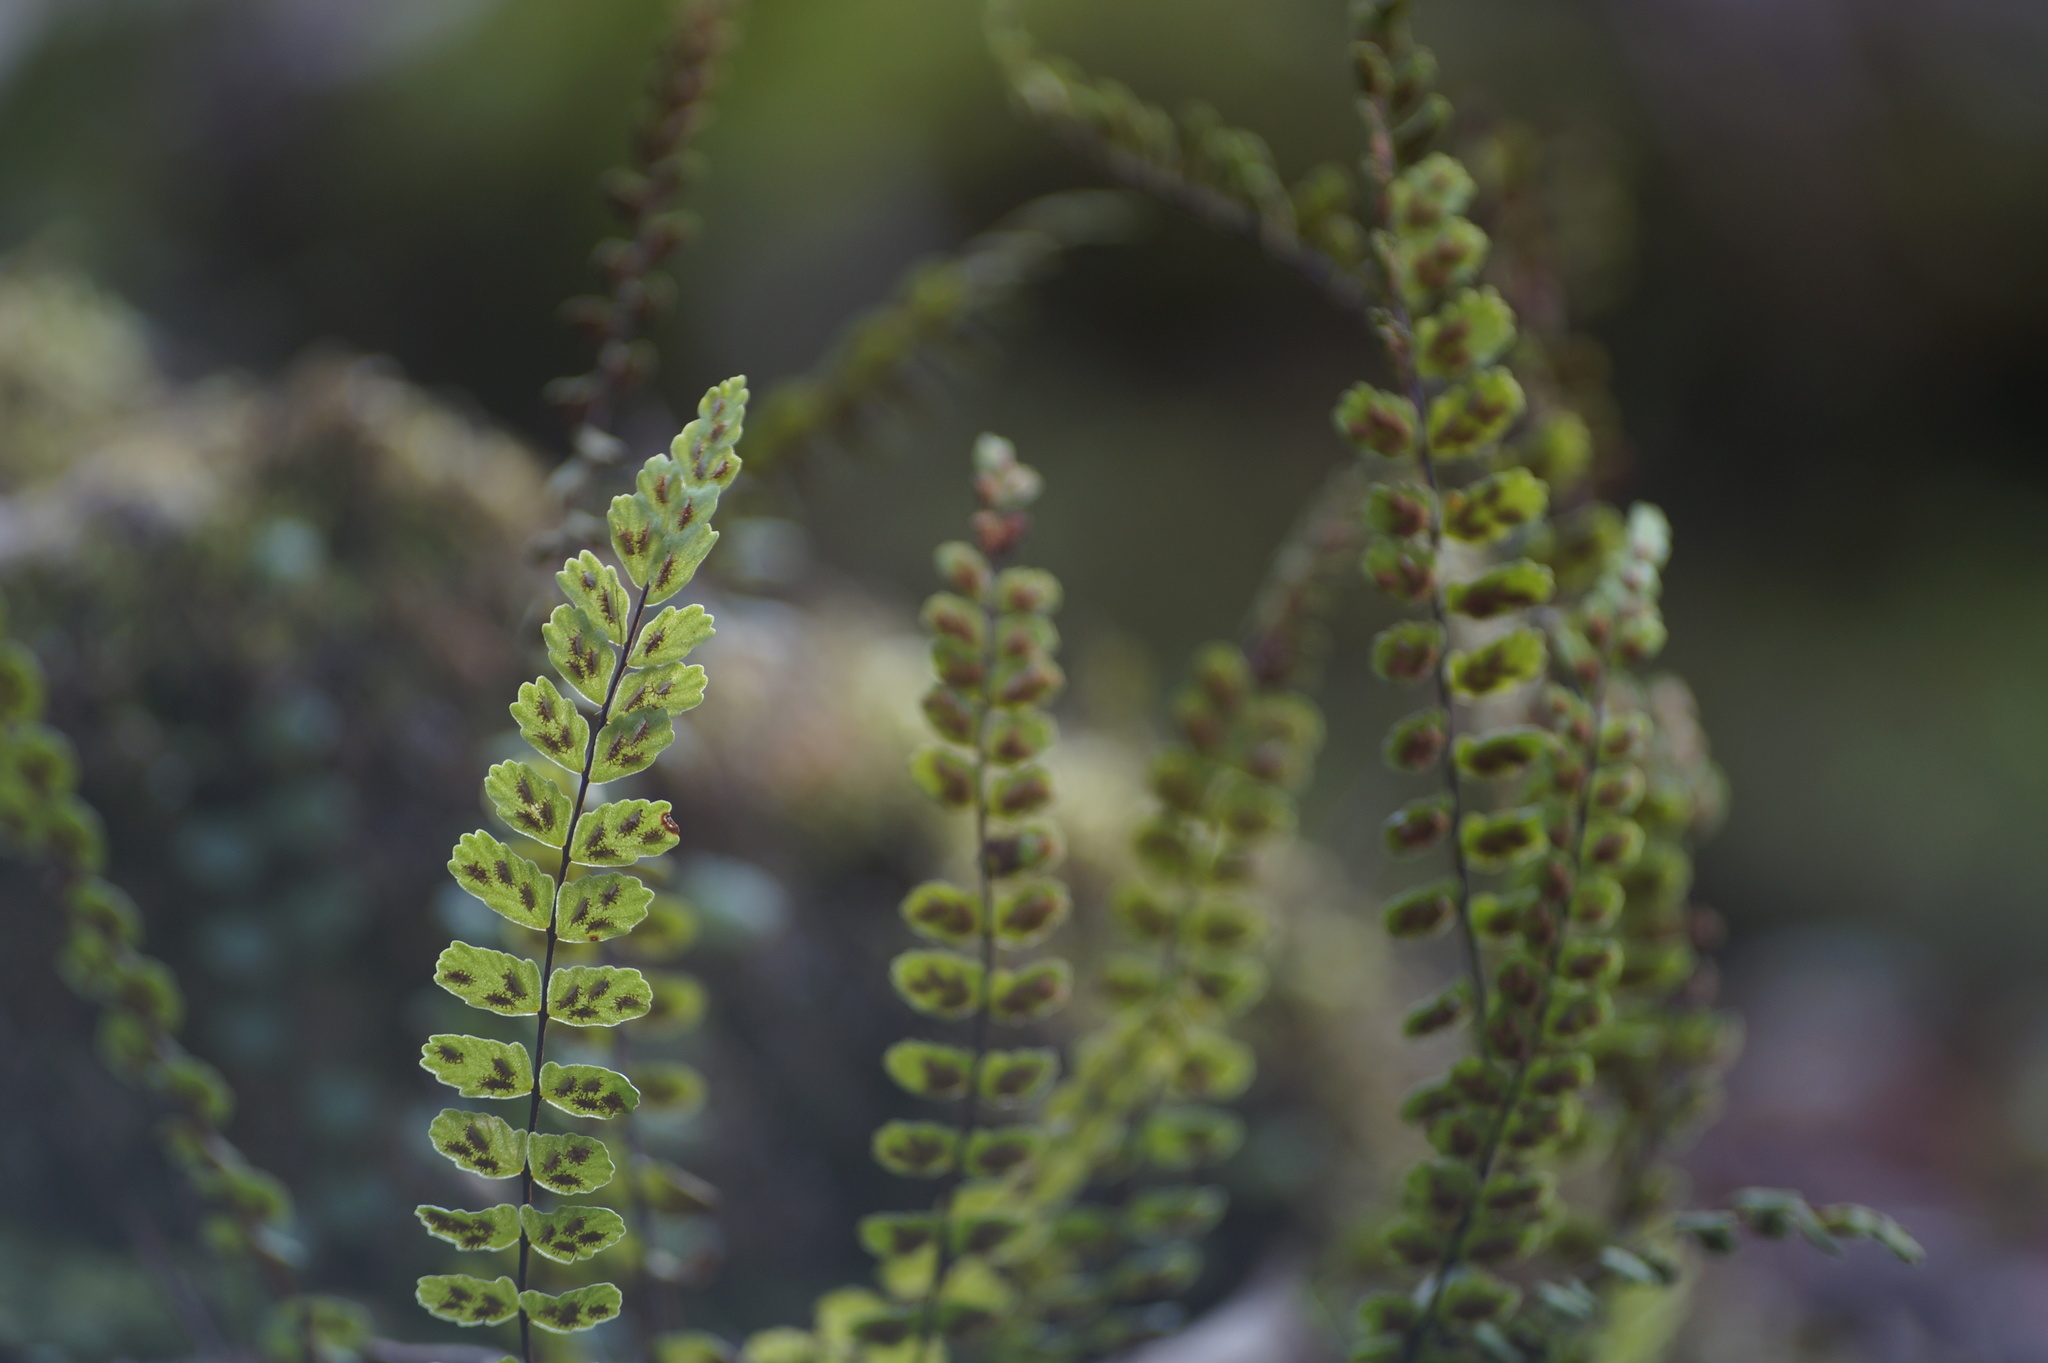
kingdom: Plantae
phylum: Tracheophyta
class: Polypodiopsida
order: Polypodiales
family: Aspleniaceae
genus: Asplenium
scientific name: Asplenium trichomanes
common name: Maidenhair spleenwort
